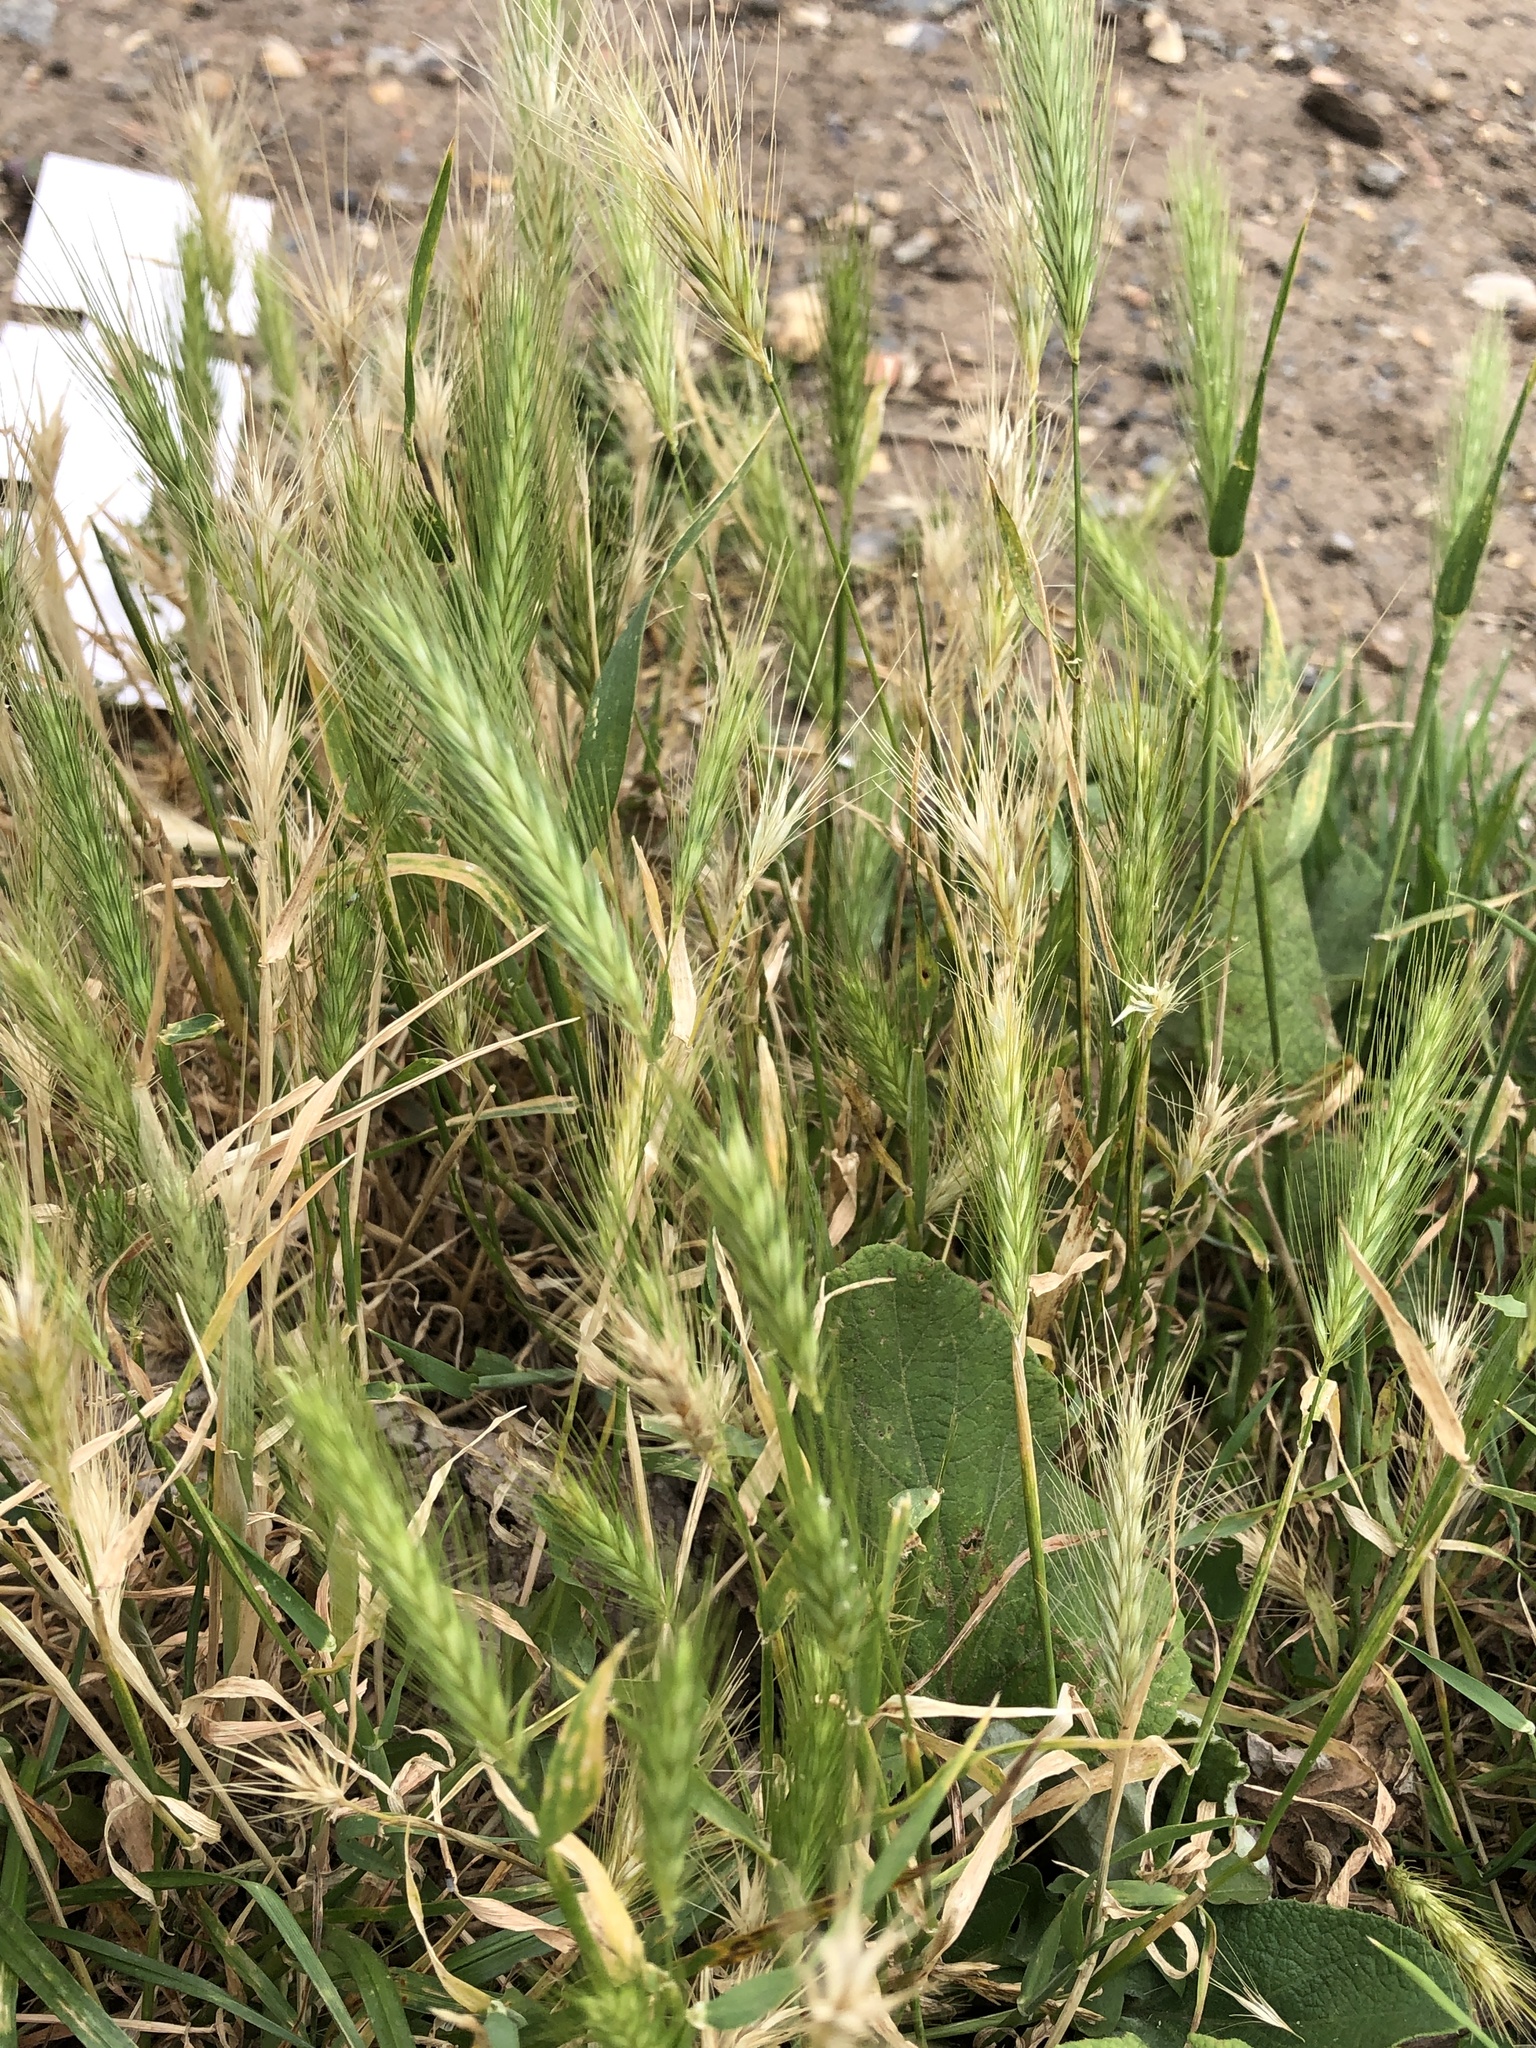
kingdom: Plantae
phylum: Tracheophyta
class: Liliopsida
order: Poales
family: Poaceae
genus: Hordeum
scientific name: Hordeum murinum
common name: Wall barley
